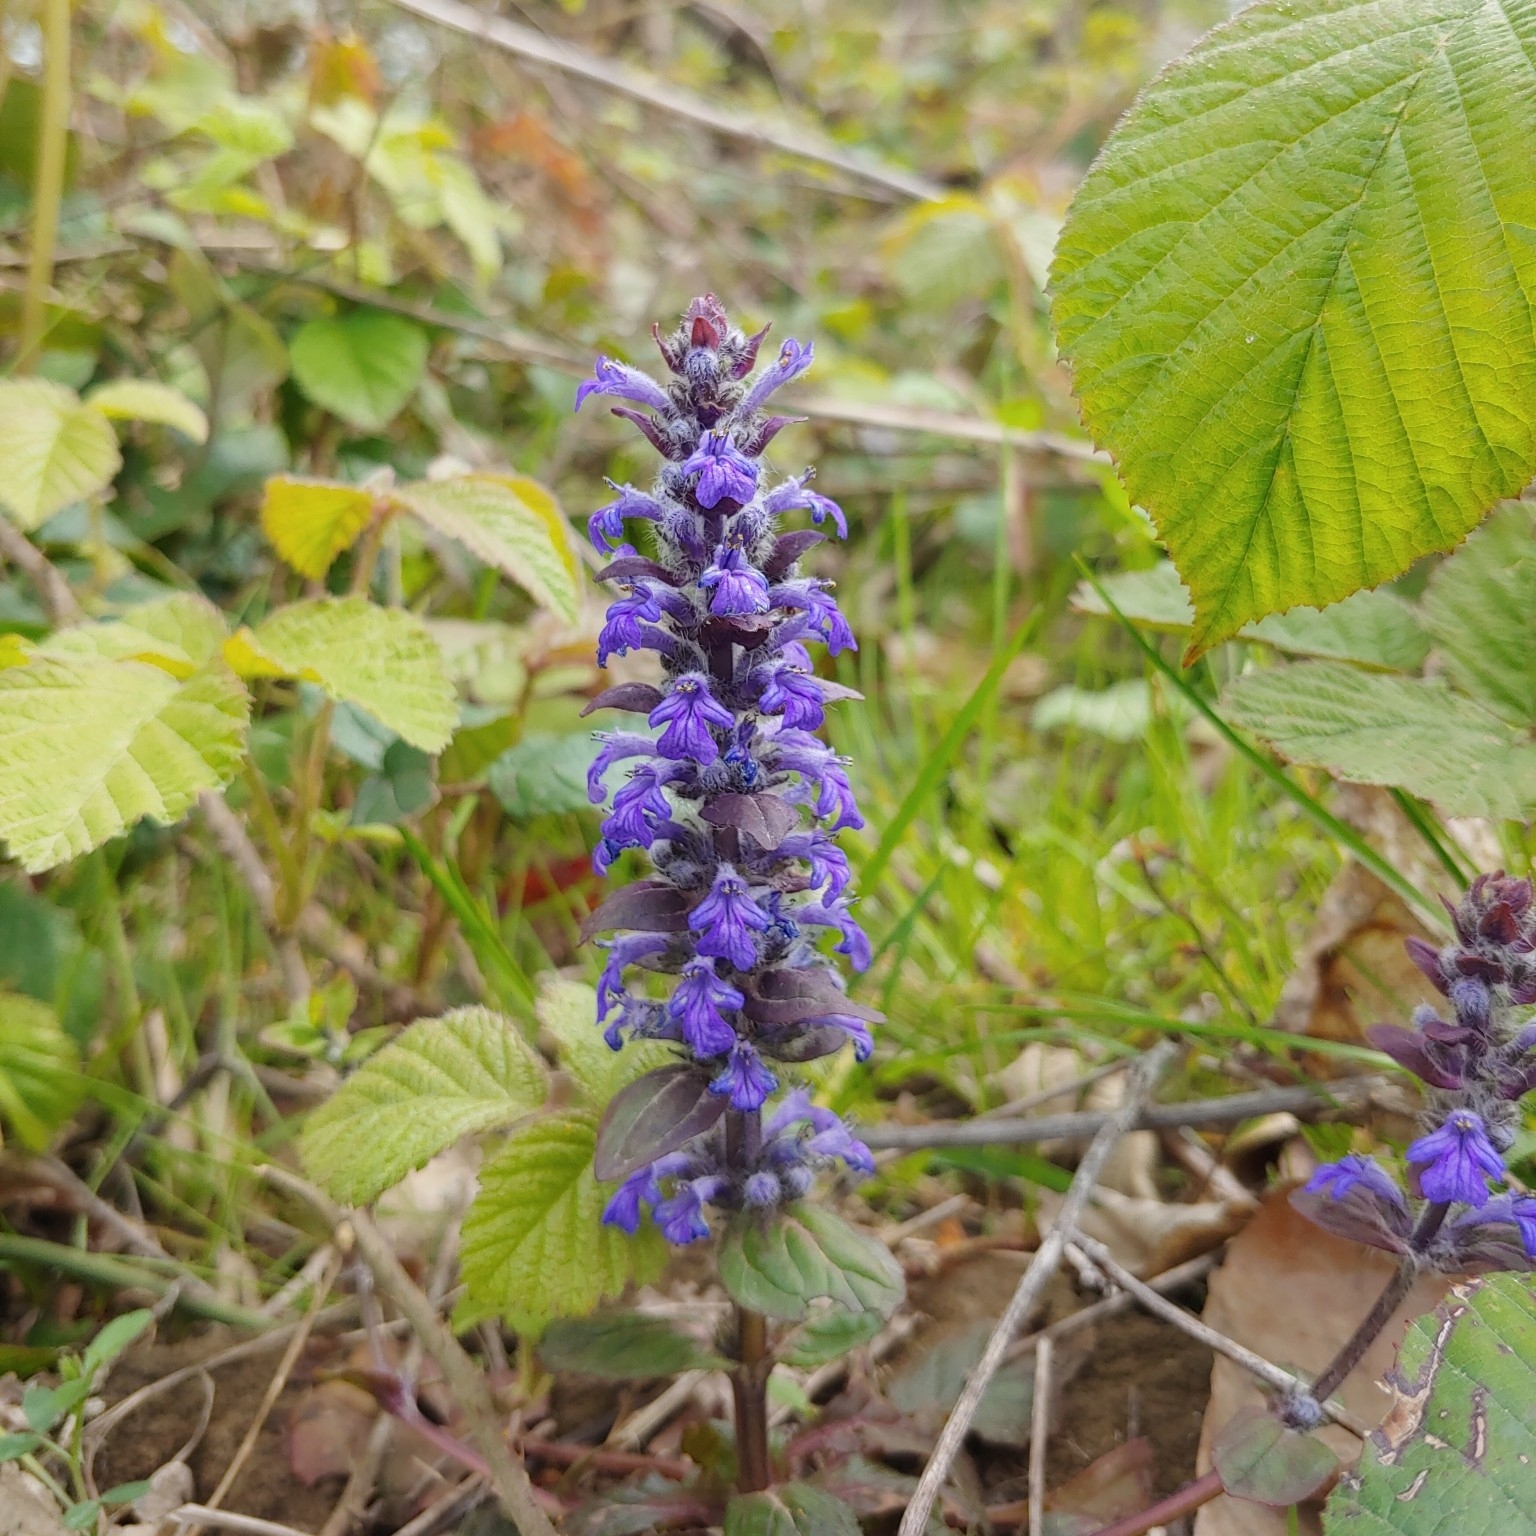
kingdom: Plantae
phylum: Tracheophyta
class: Magnoliopsida
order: Lamiales
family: Lamiaceae
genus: Ajuga
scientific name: Ajuga reptans
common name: Bugle
